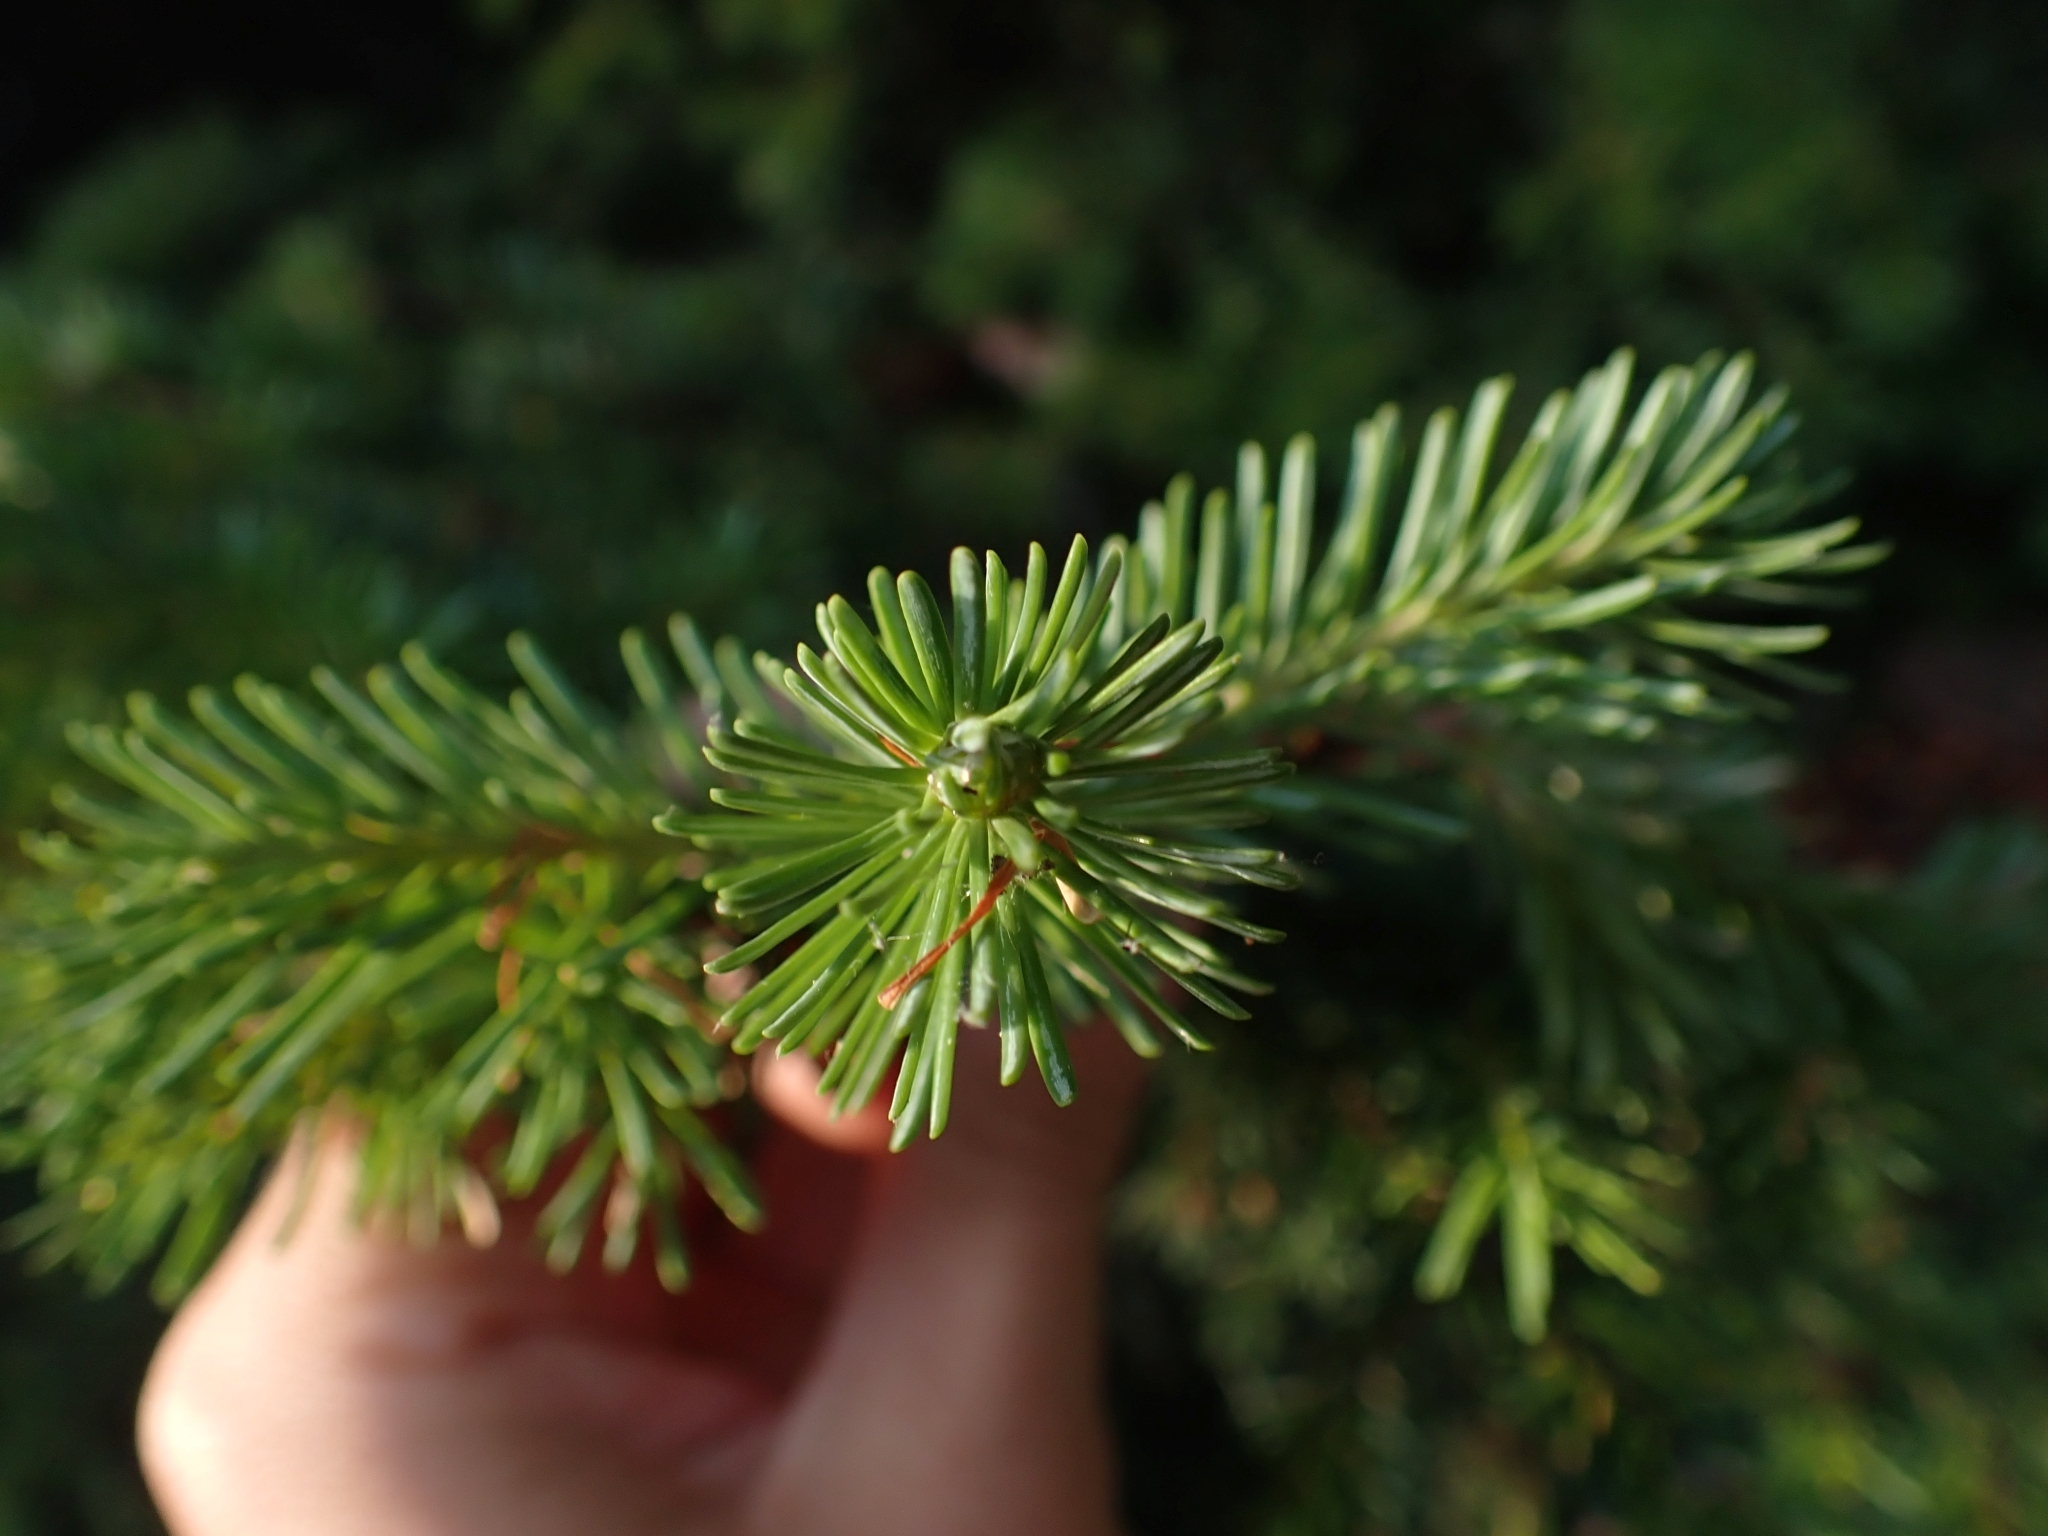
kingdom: Plantae
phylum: Tracheophyta
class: Pinopsida
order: Pinales
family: Pinaceae
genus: Abies
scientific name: Abies lasiocarpa
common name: Subalpine fir
